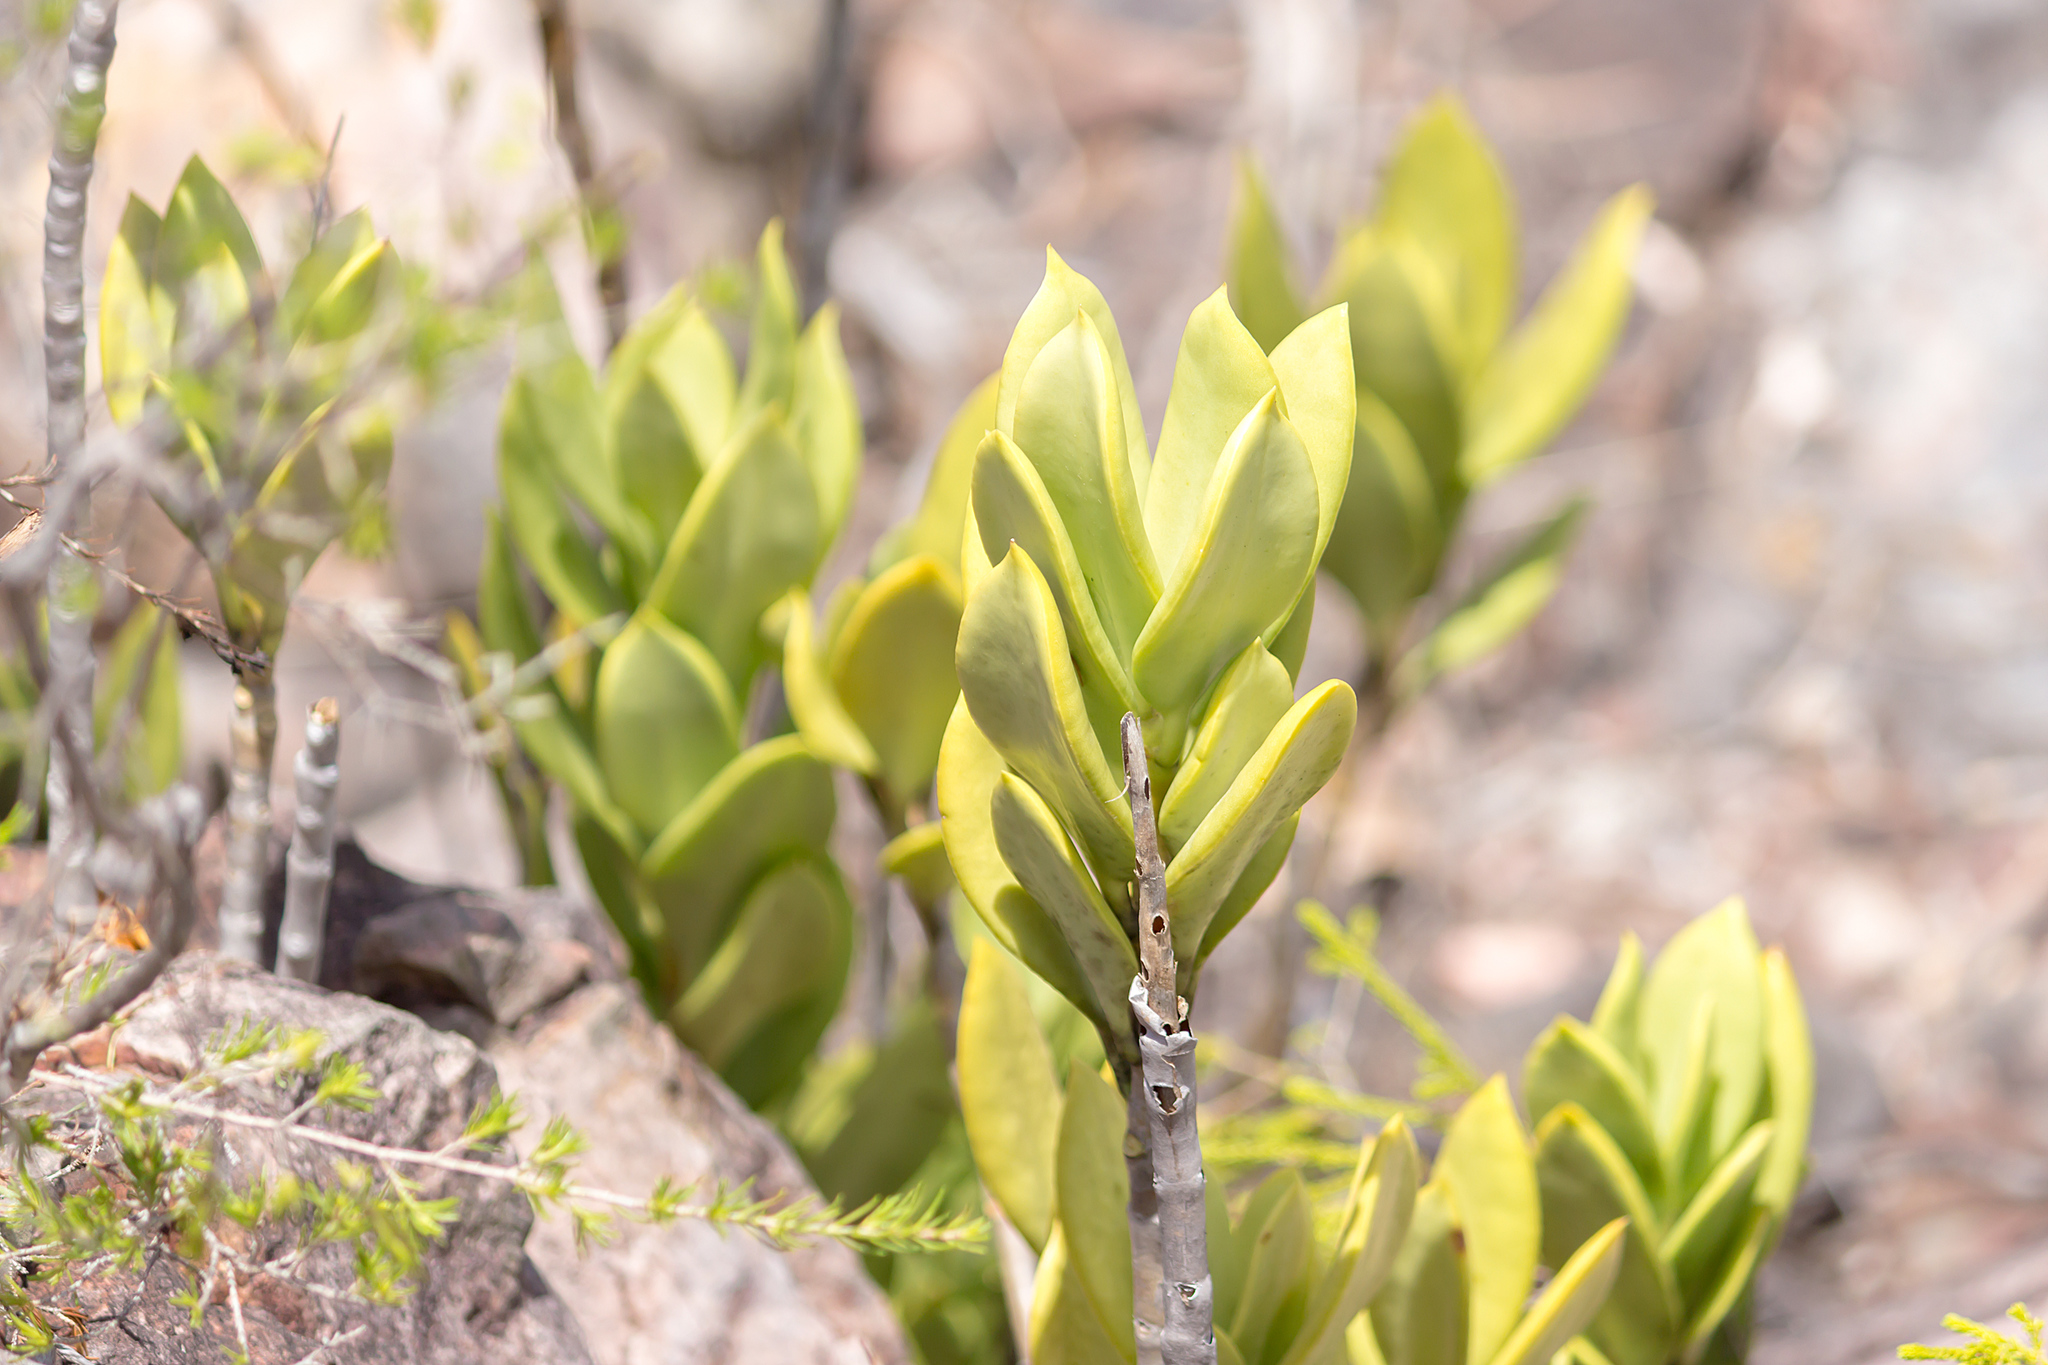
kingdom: Plantae
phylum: Tracheophyta
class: Magnoliopsida
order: Gentianales
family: Apocynaceae
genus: Hoya
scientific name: Hoya australis
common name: Wax flower
